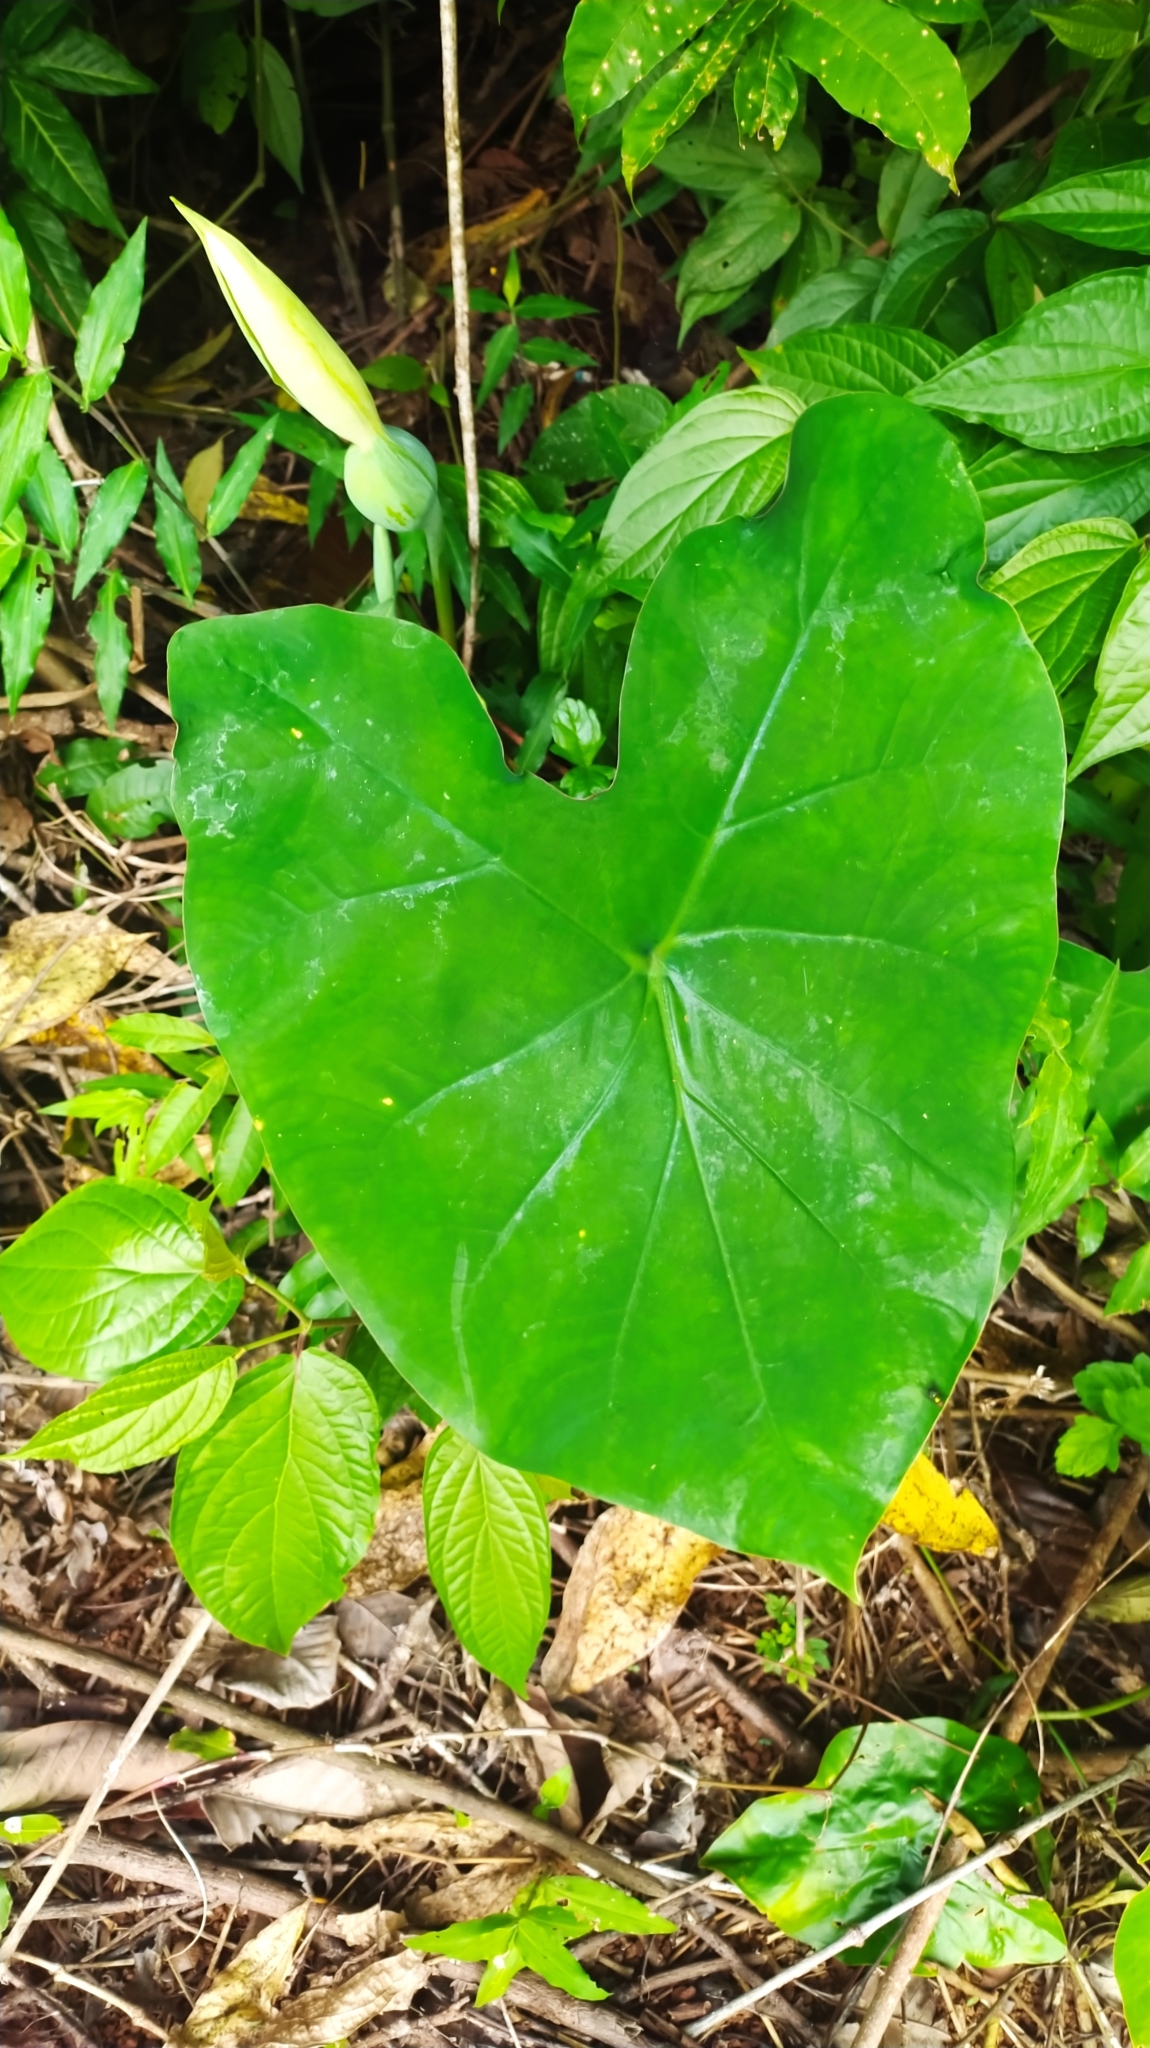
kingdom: Plantae
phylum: Tracheophyta
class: Liliopsida
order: Alismatales
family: Araceae
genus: Caladium
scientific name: Caladium bicolor
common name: Artist's pallet
